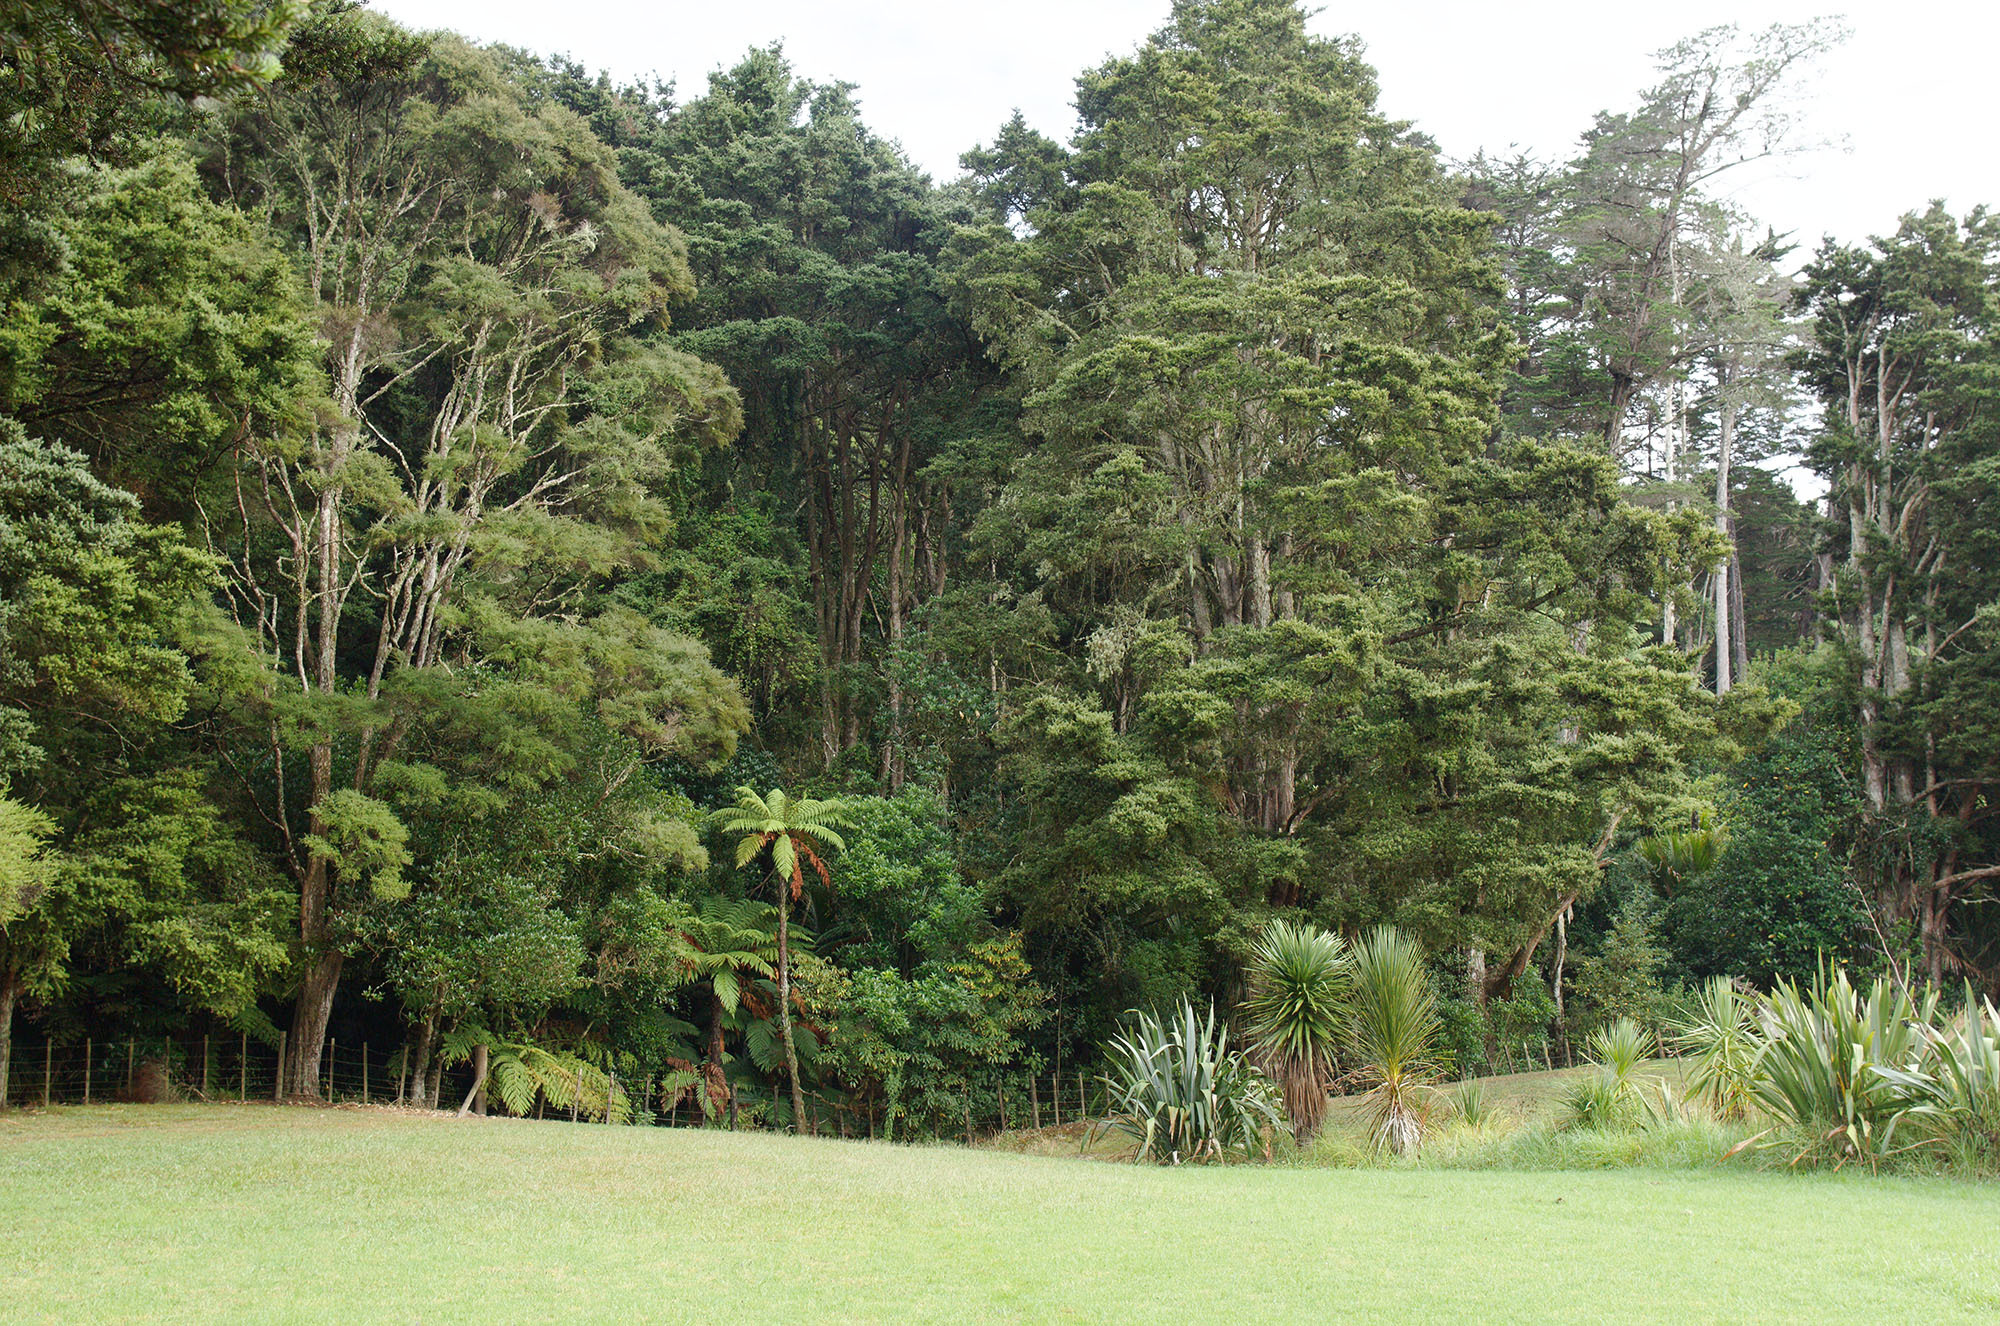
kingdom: Plantae
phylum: Tracheophyta
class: Polypodiopsida
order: Cyatheales
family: Dicksoniaceae
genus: Dicksonia
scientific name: Dicksonia squarrosa
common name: Hard treefern
